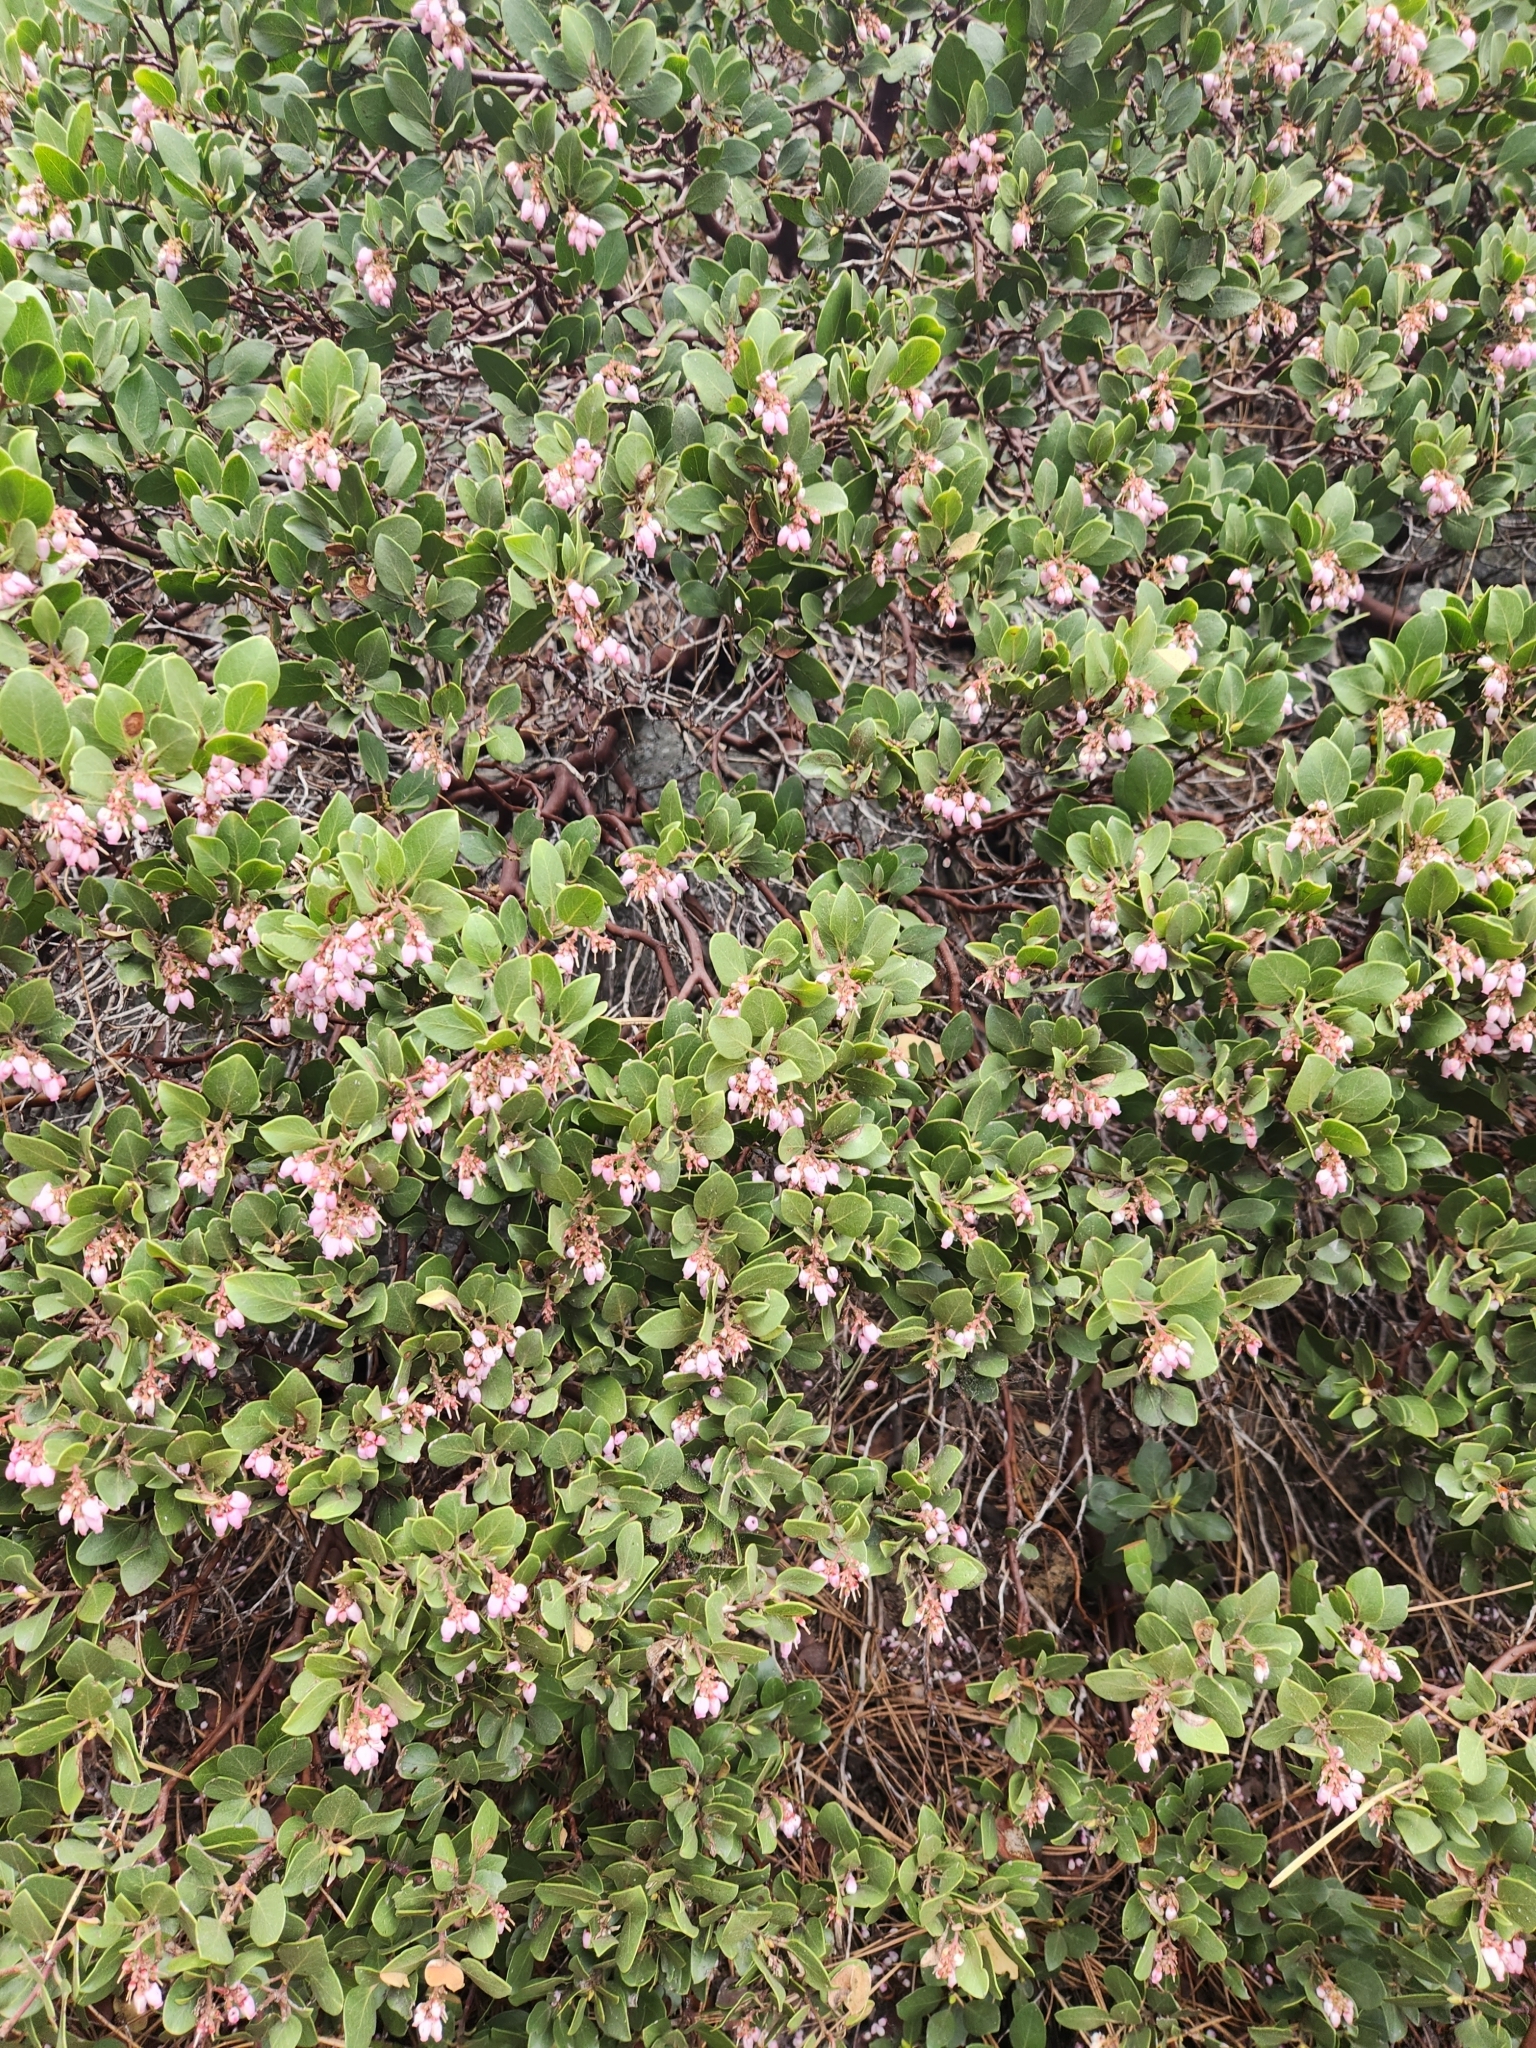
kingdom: Plantae
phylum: Tracheophyta
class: Magnoliopsida
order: Ericales
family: Ericaceae
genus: Arctostaphylos
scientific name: Arctostaphylos patula
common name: Green-leaf manzanita
